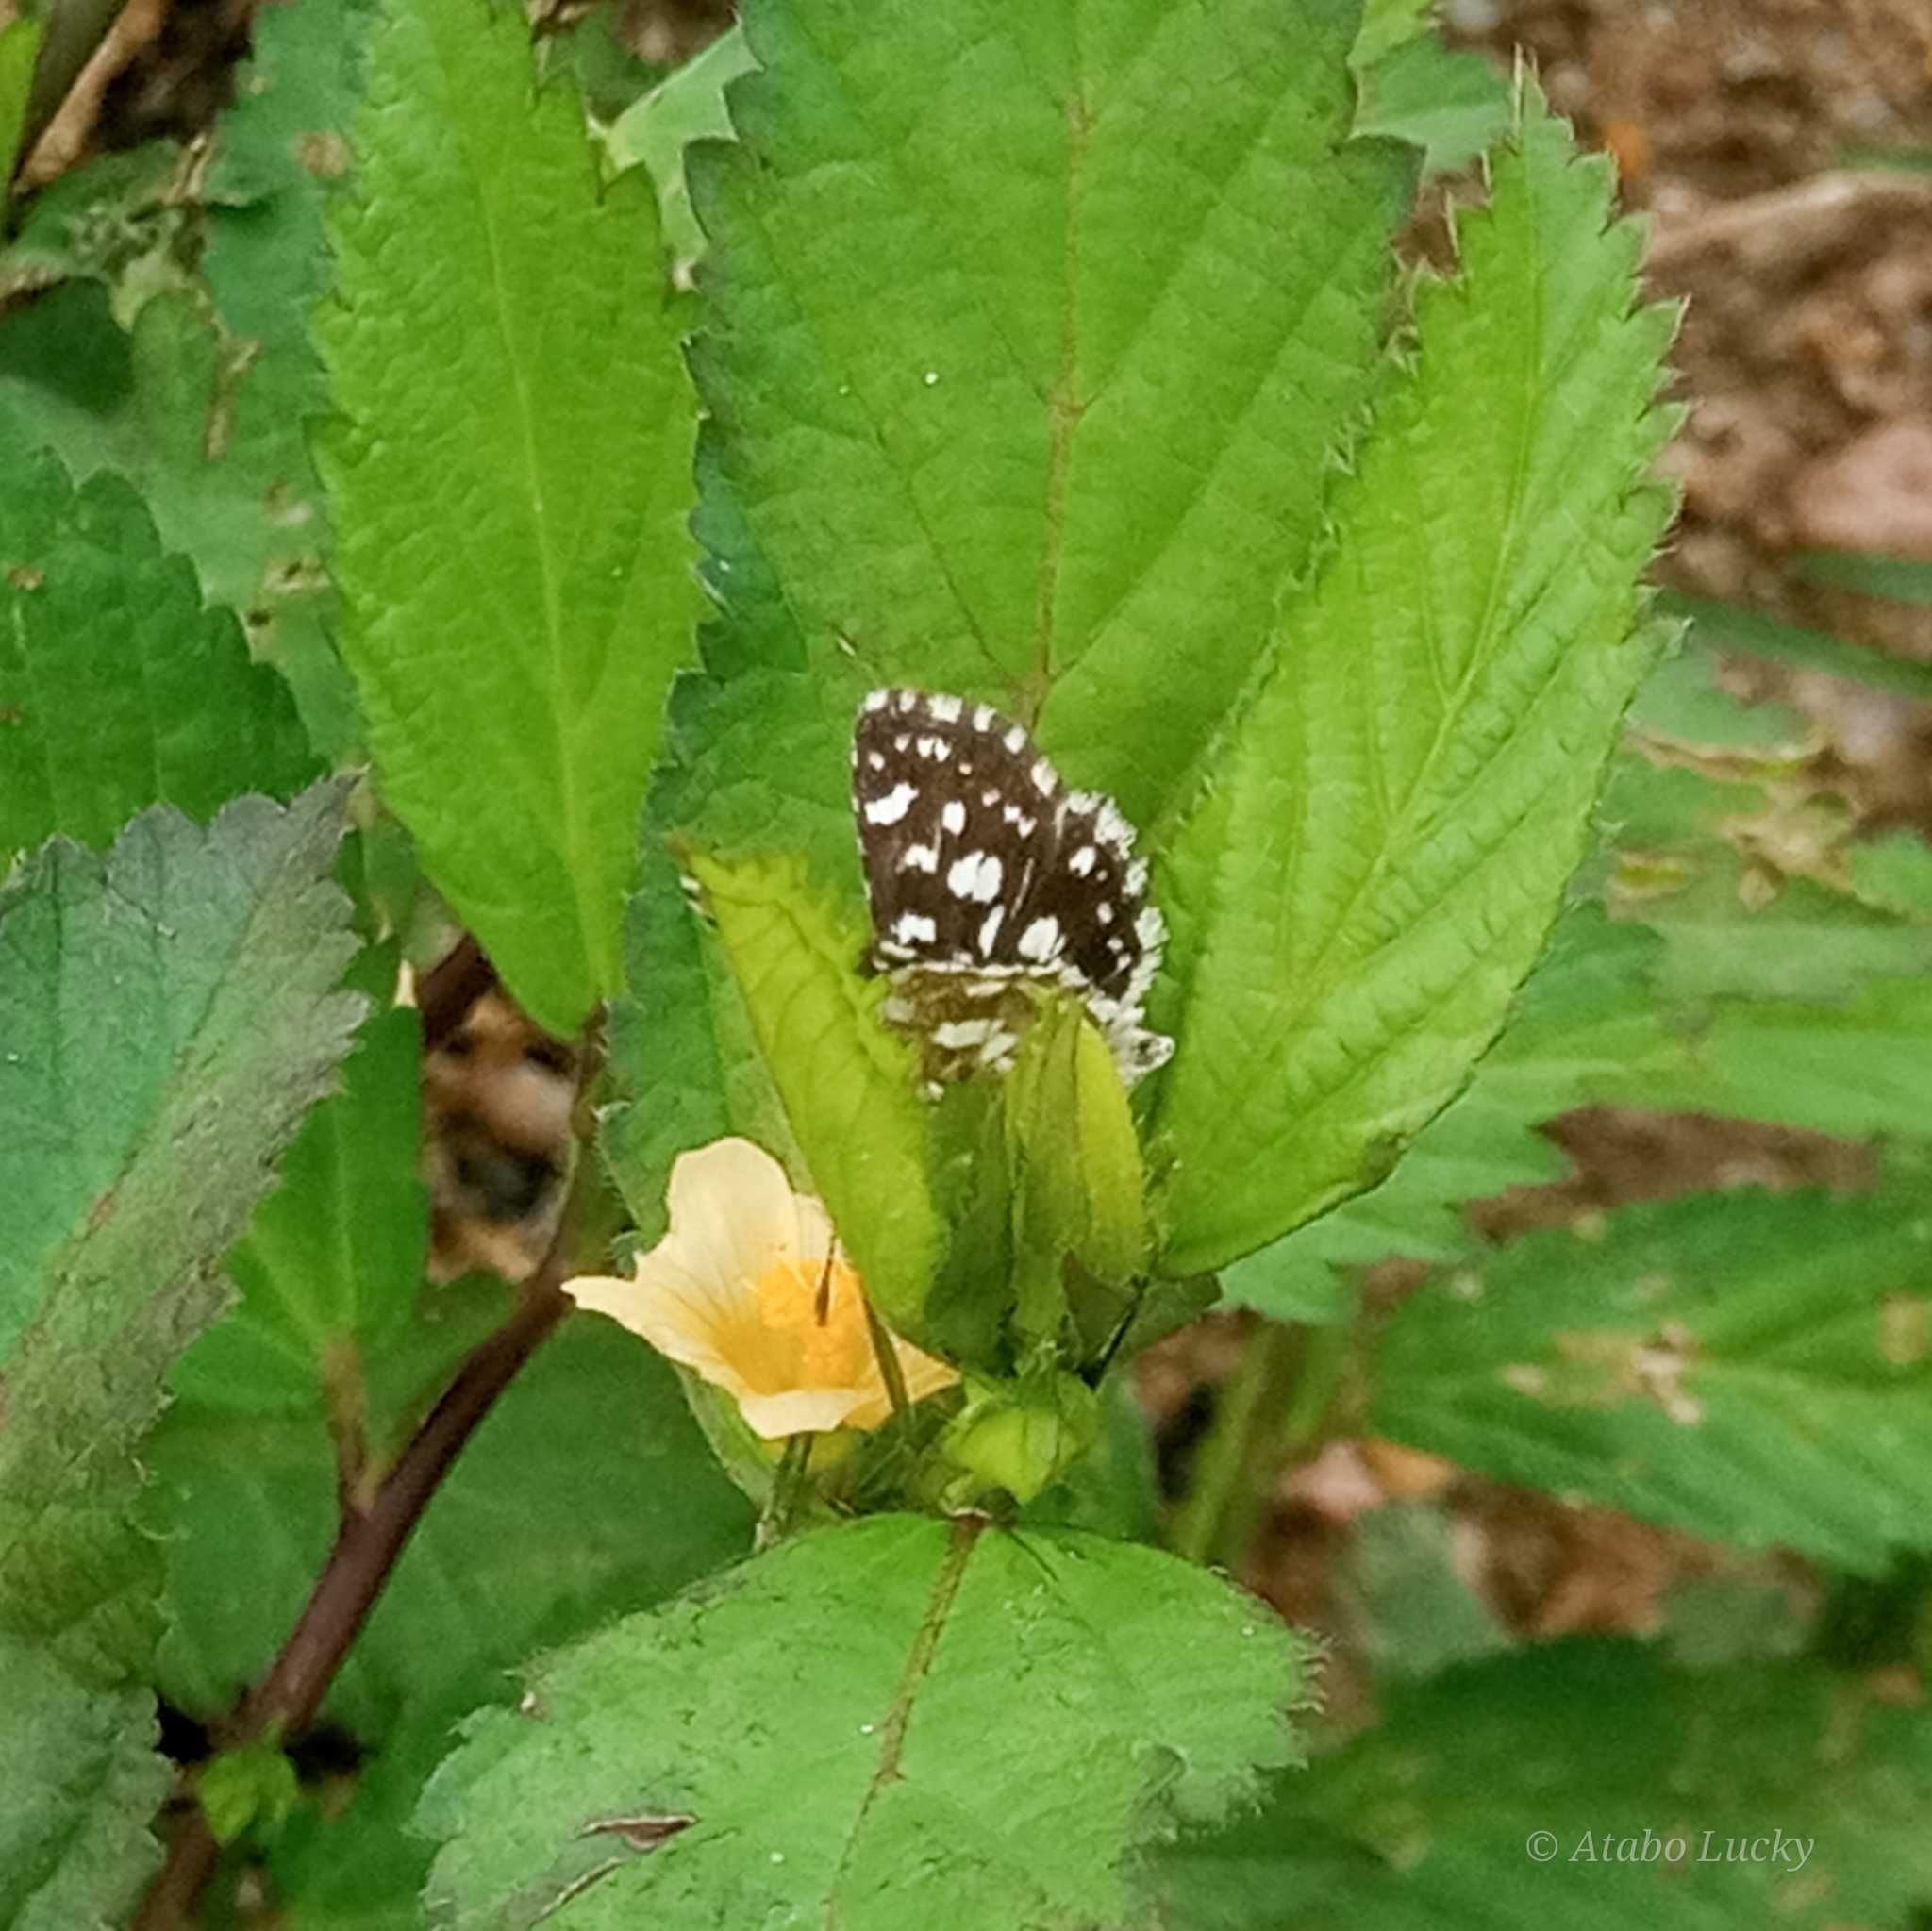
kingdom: Animalia
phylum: Arthropoda
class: Insecta
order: Lepidoptera
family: Hesperiidae
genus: Spialia
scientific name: Spialia spio
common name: Mountain sandman
